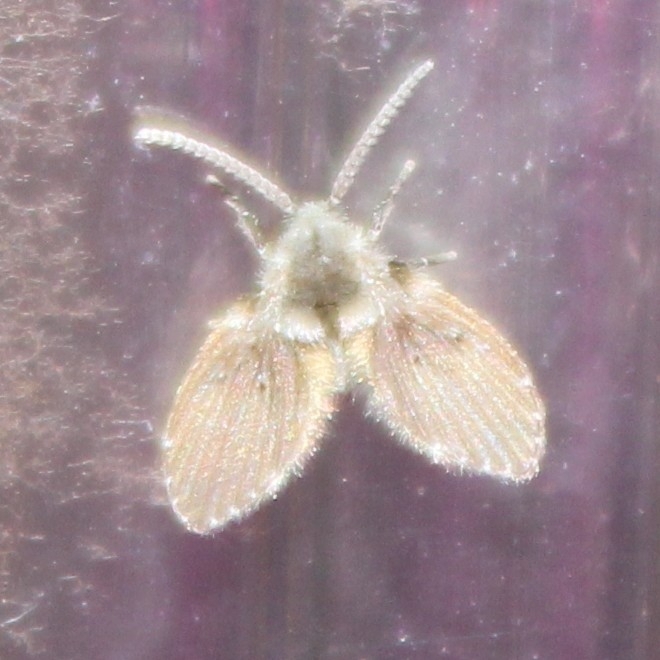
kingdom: Animalia
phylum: Arthropoda
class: Insecta
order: Diptera
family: Psychodidae
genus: Clogmia
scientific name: Clogmia albipunctatus
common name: White-spotted moth fly
